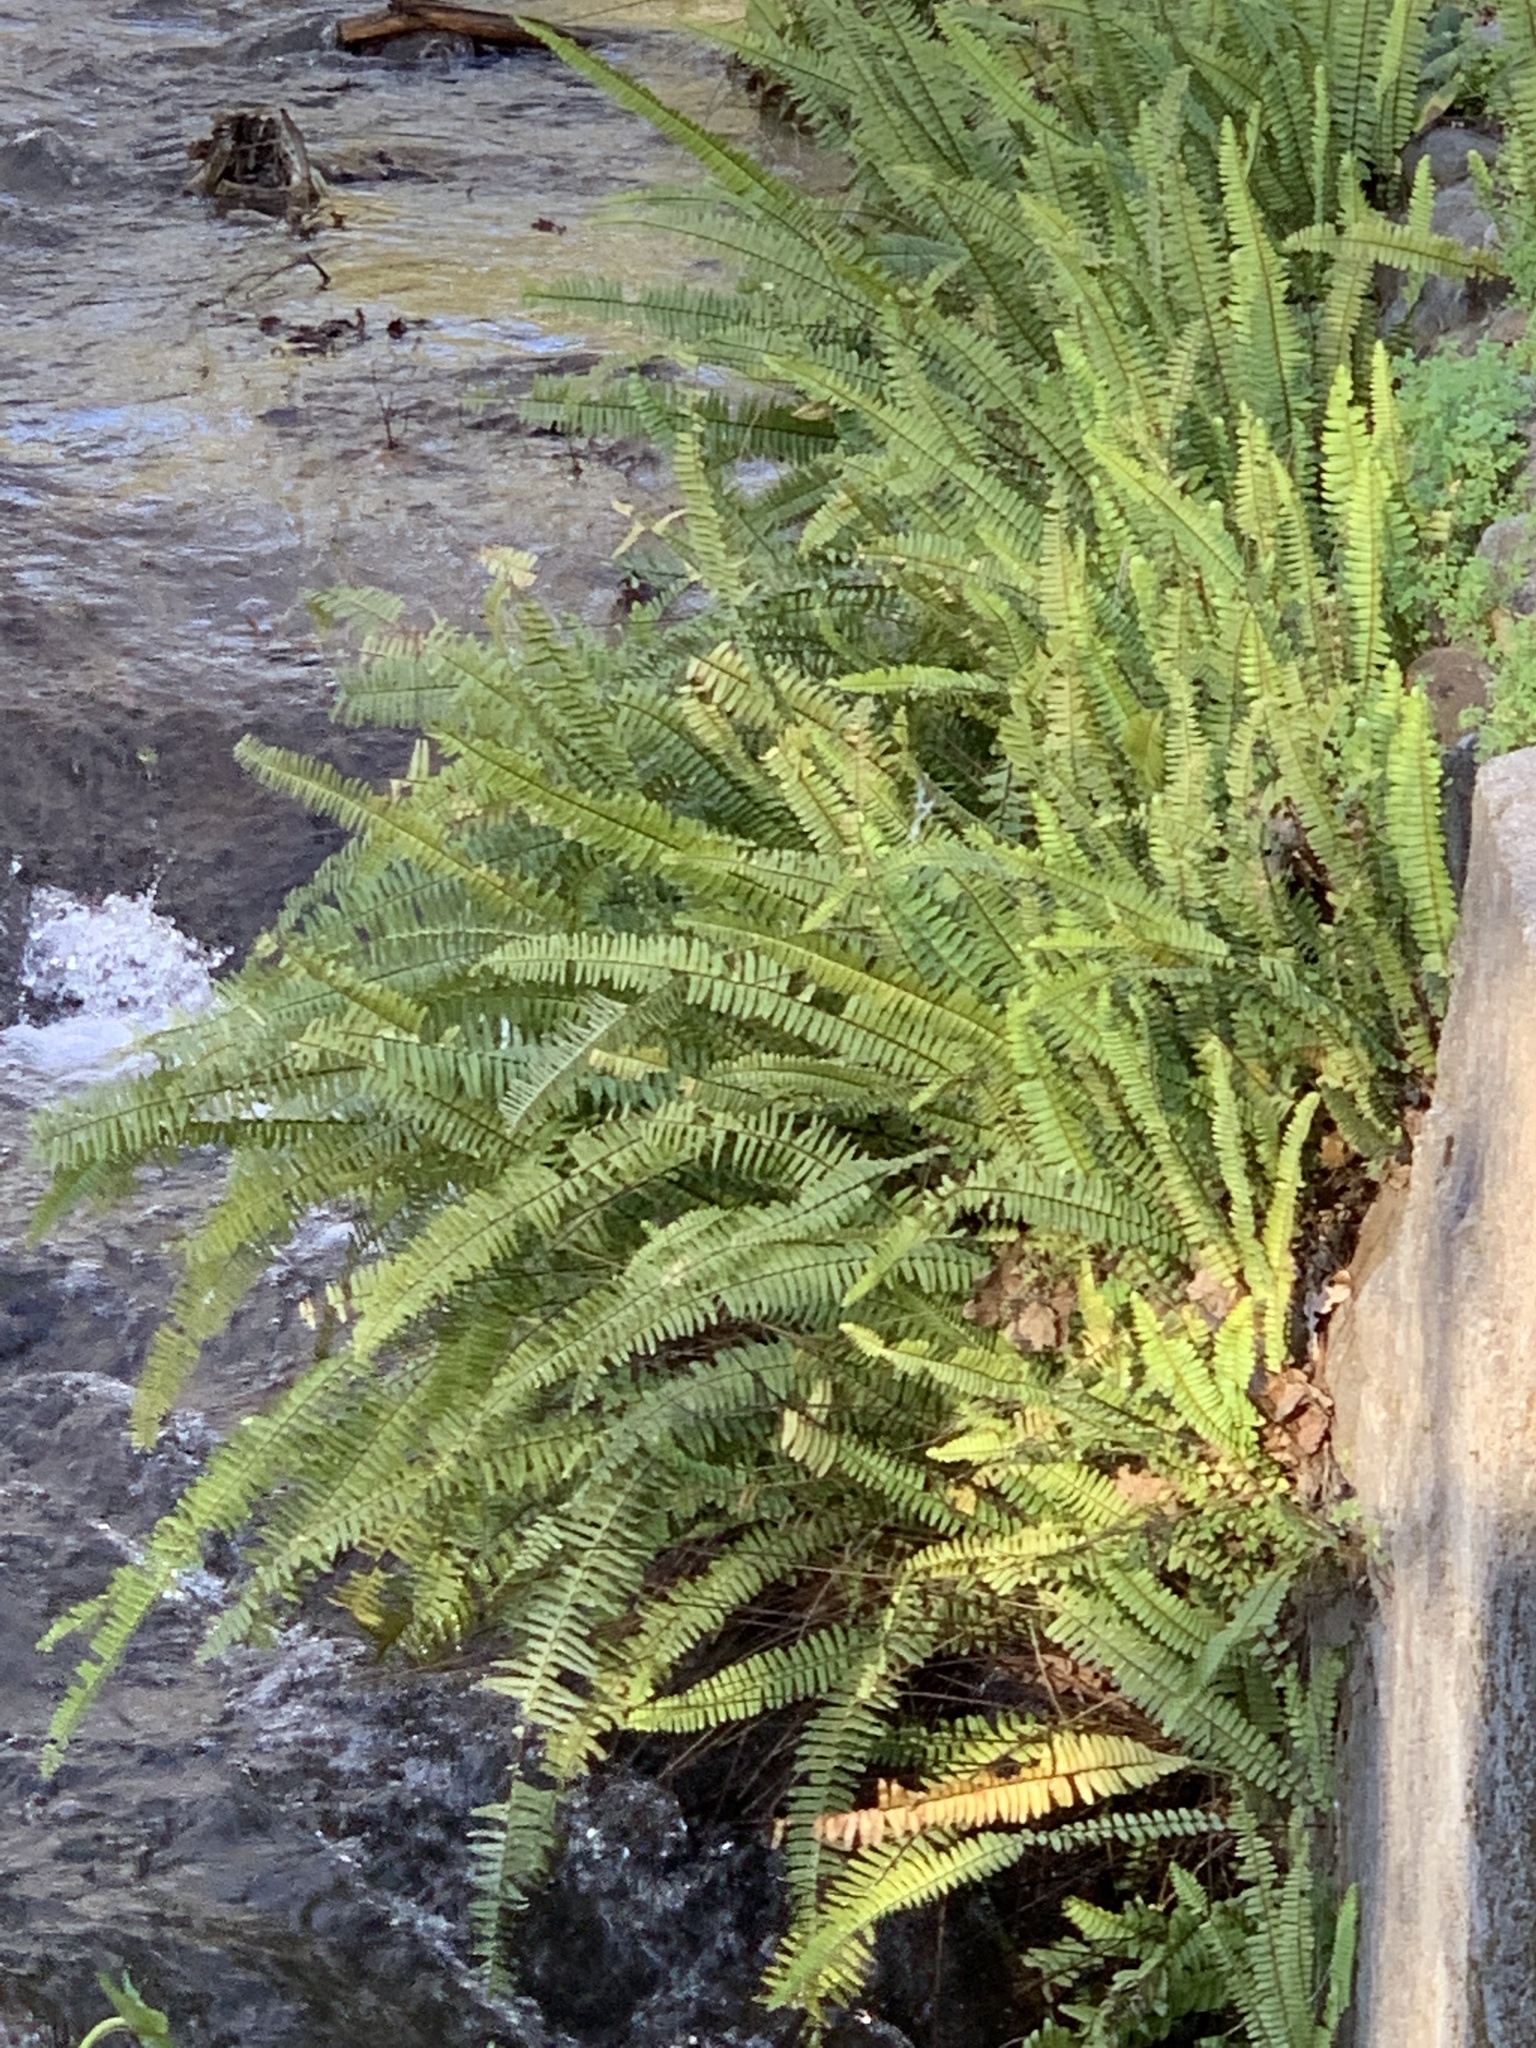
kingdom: Plantae
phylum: Tracheophyta
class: Polypodiopsida
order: Polypodiales
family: Nephrolepidaceae
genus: Nephrolepis
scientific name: Nephrolepis cordifolia
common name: Narrow swordfern
